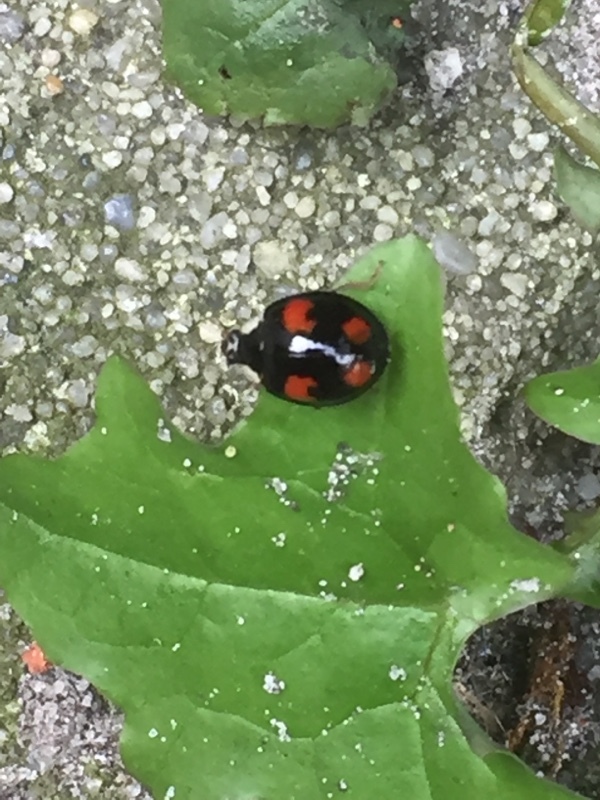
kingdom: Animalia
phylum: Arthropoda
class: Insecta
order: Coleoptera
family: Coccinellidae
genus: Harmonia
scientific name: Harmonia axyridis
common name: Harlequin ladybird
